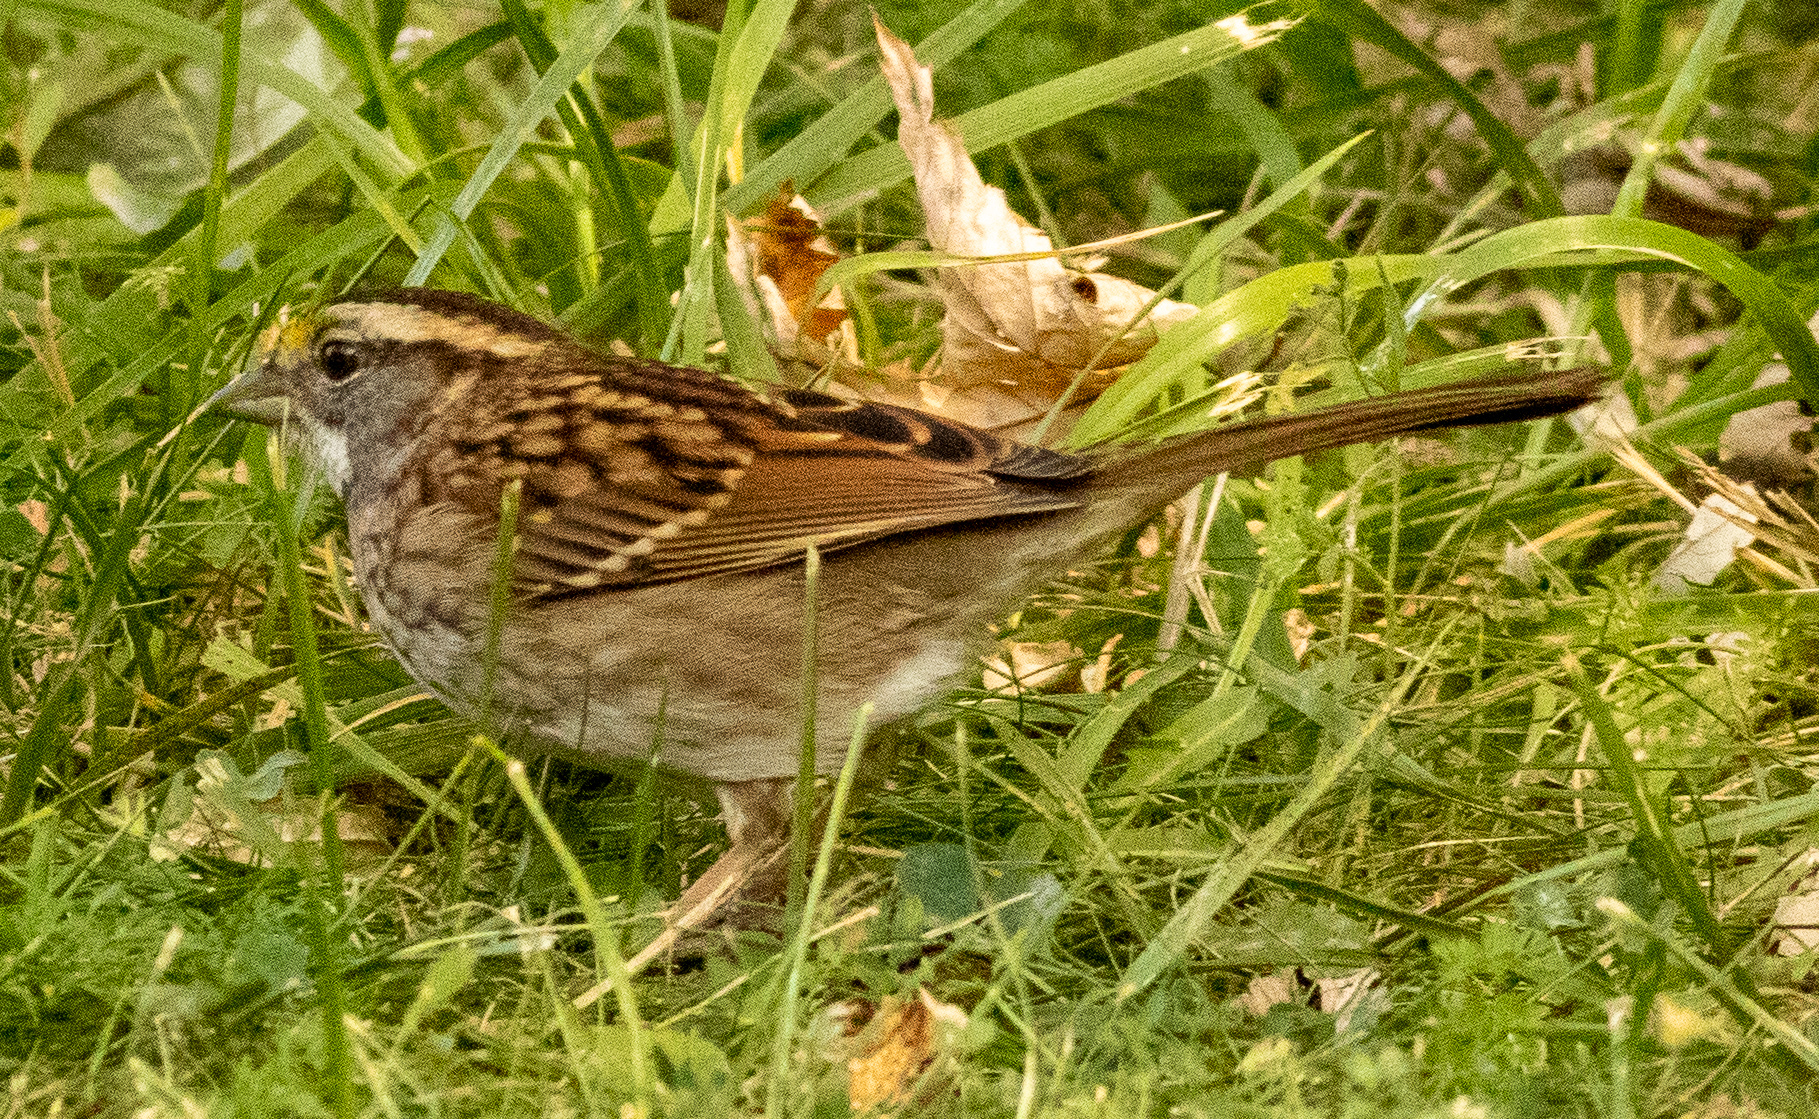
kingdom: Animalia
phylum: Chordata
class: Aves
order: Passeriformes
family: Passerellidae
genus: Zonotrichia
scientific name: Zonotrichia albicollis
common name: White-throated sparrow
